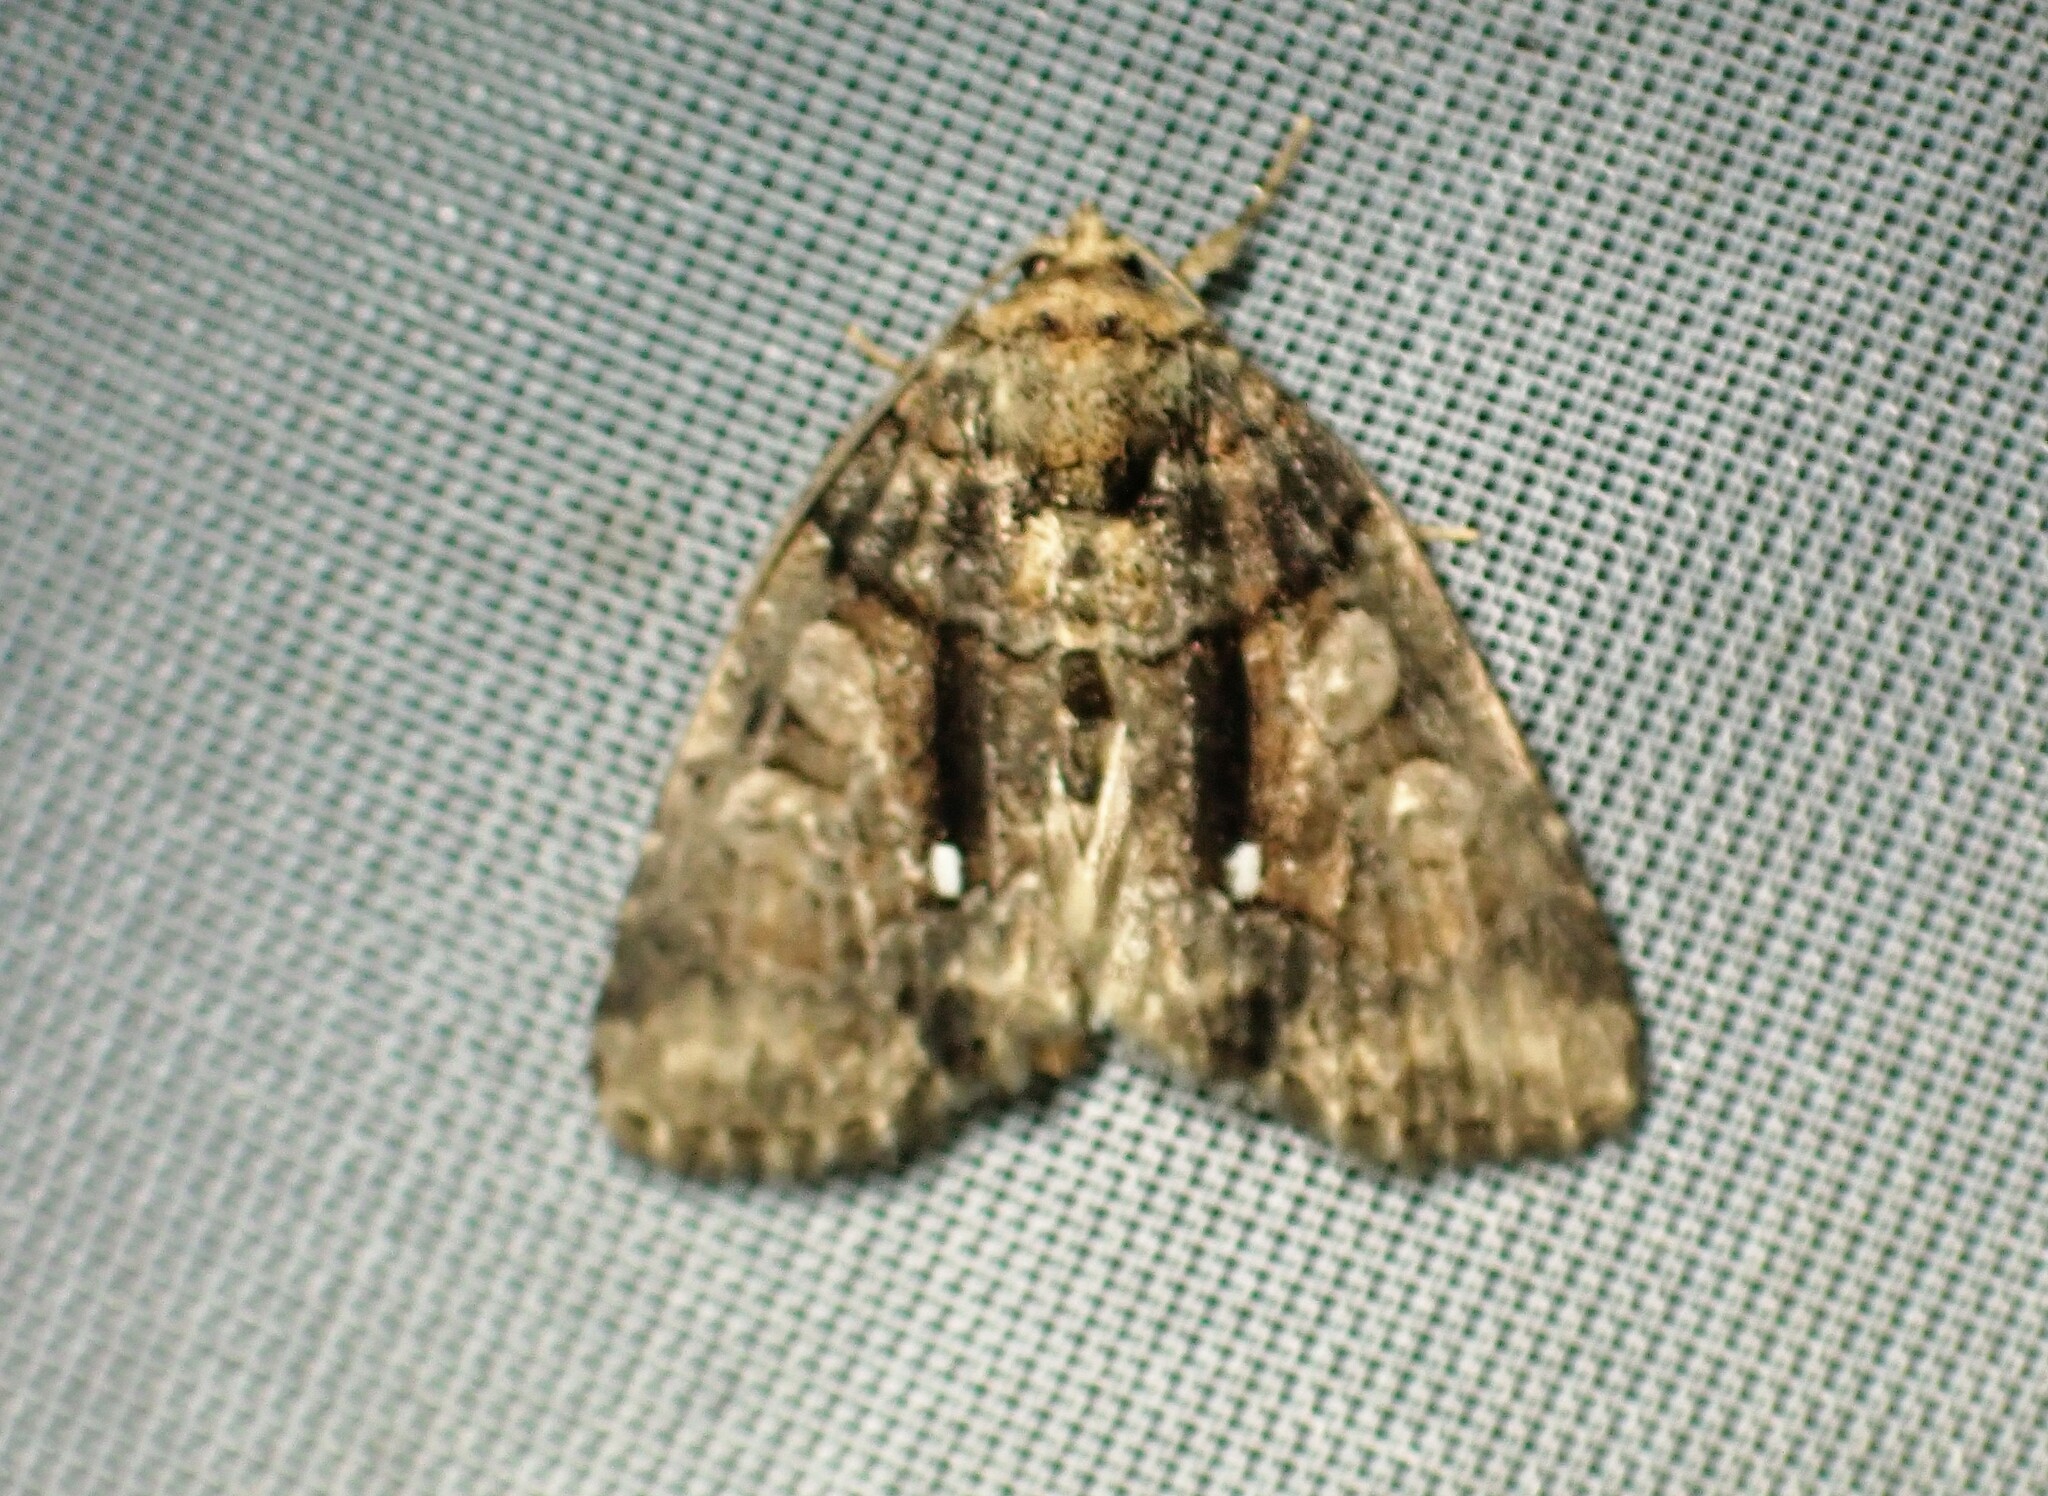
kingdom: Animalia
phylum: Arthropoda
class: Insecta
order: Lepidoptera
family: Noctuidae
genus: Chytonix
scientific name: Chytonix palliatricula
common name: Cloaked marvel
